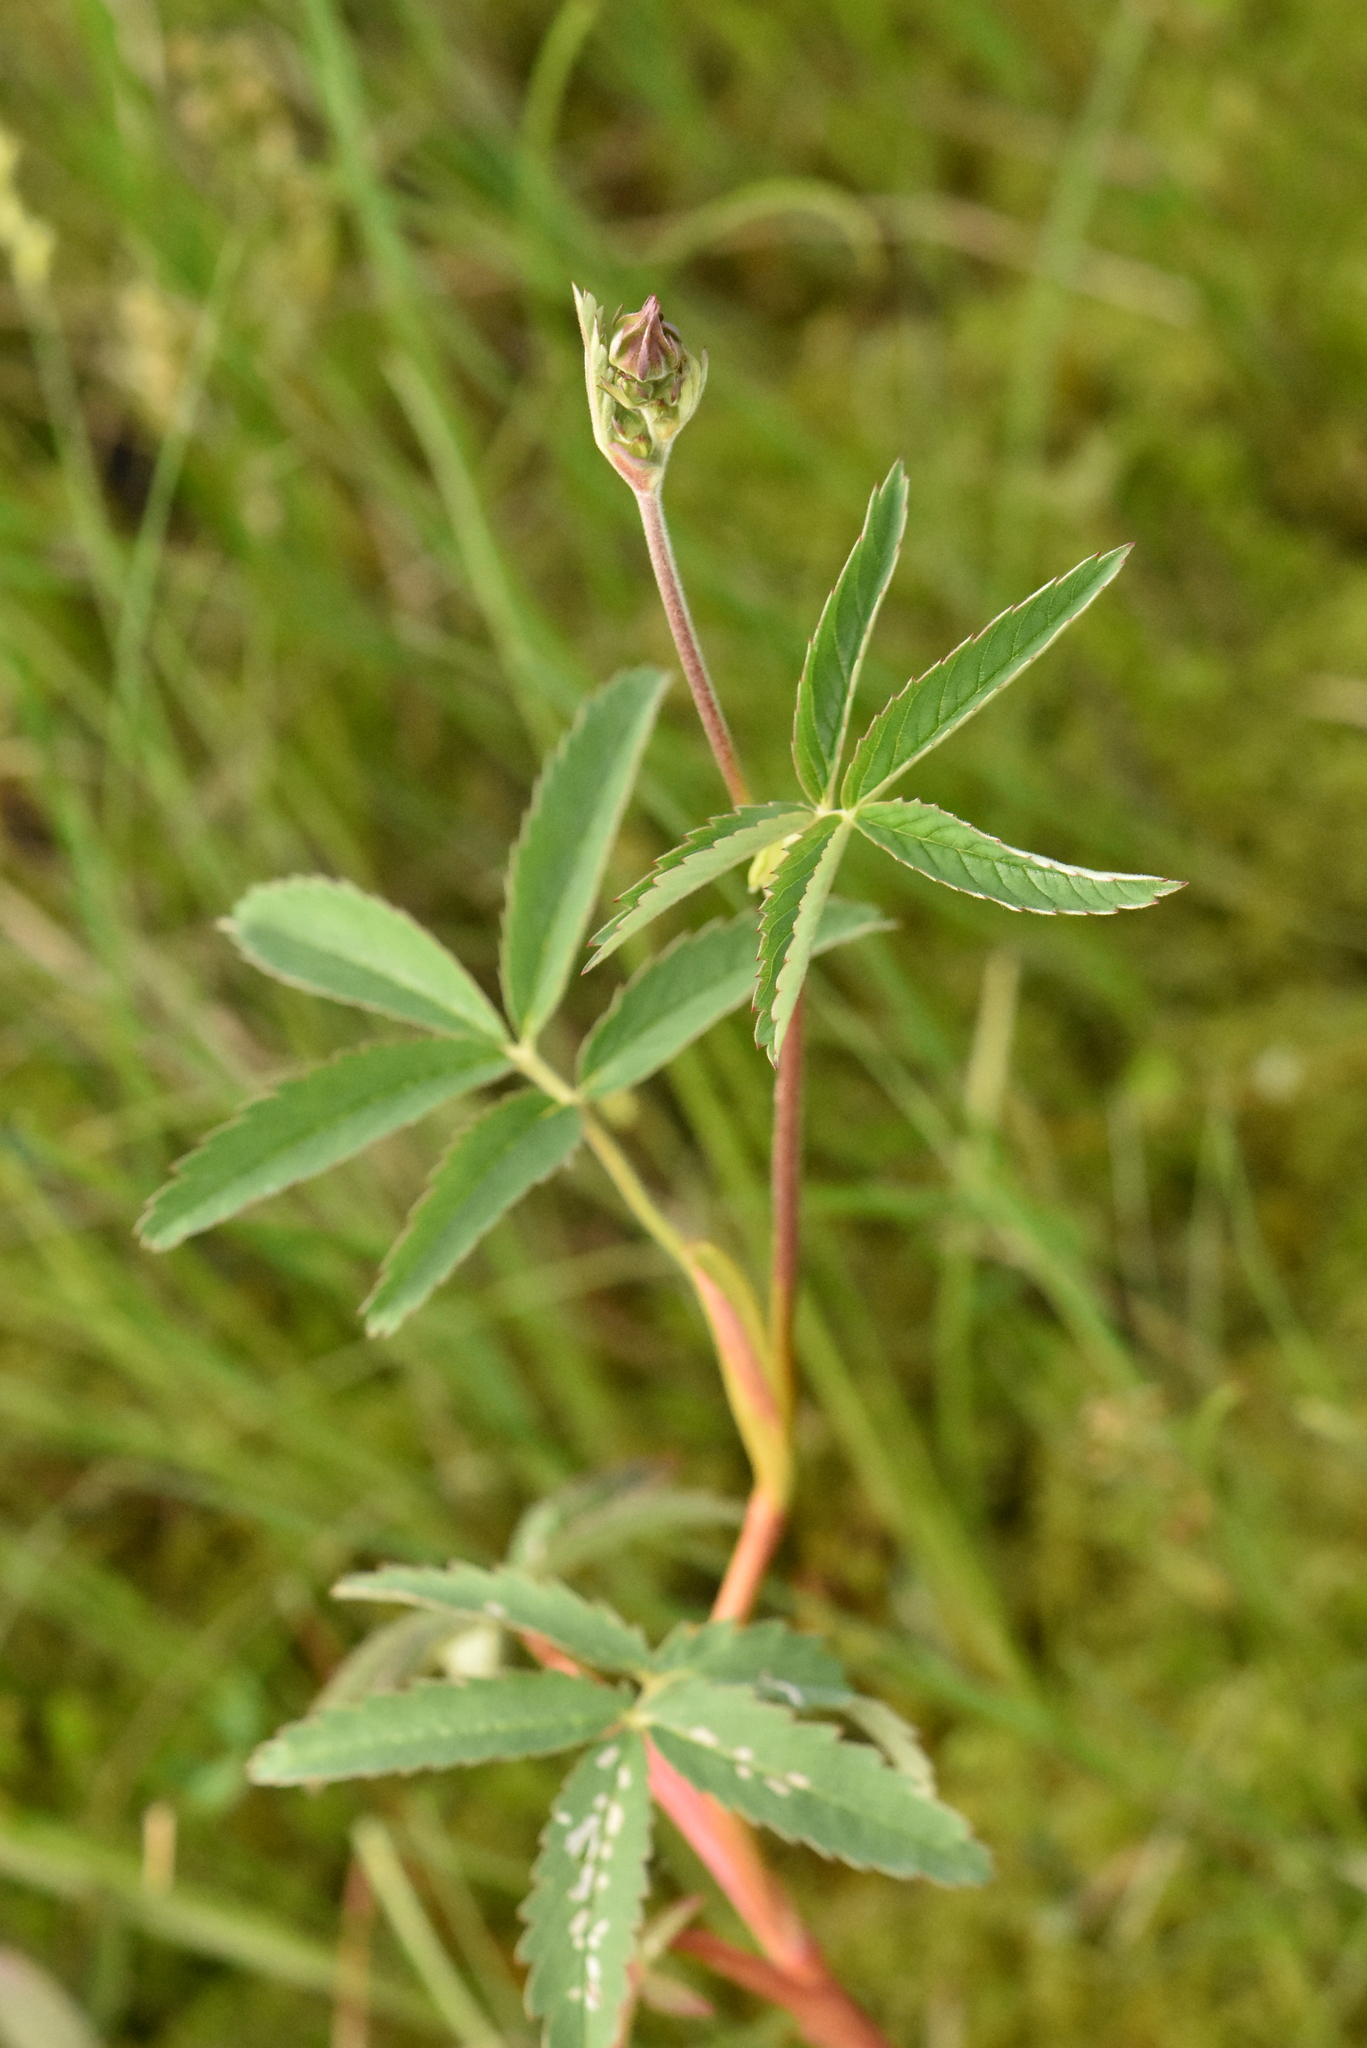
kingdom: Plantae
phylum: Tracheophyta
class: Magnoliopsida
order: Rosales
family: Rosaceae
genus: Comarum
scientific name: Comarum palustre
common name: Marsh cinquefoil
